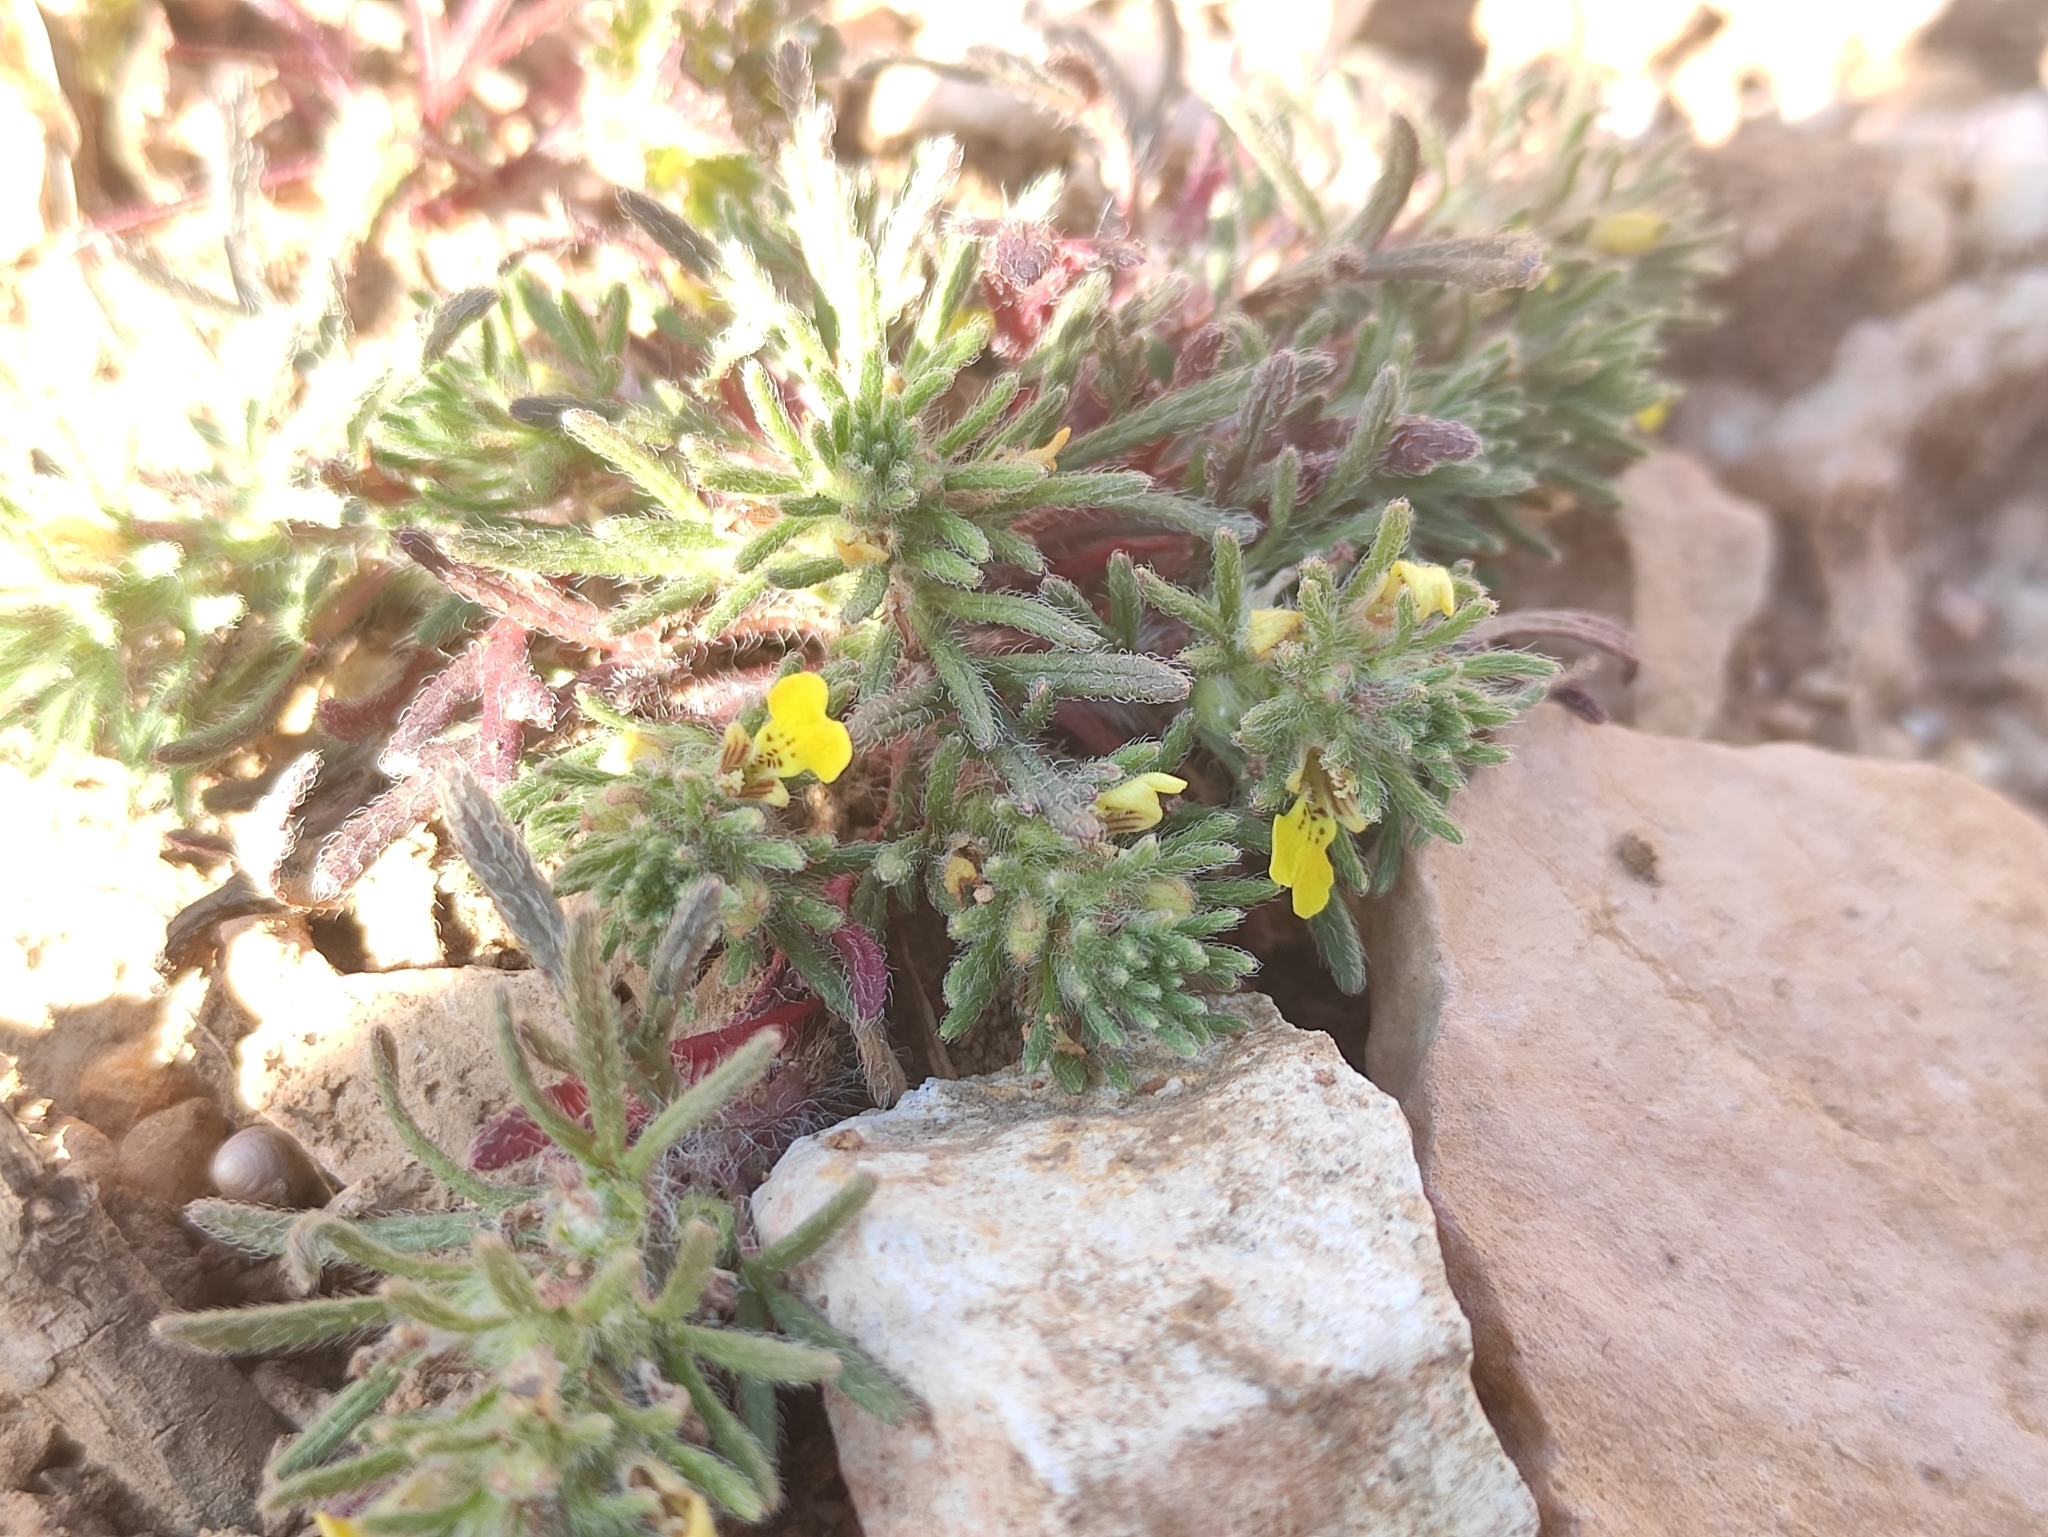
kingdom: Plantae
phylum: Tracheophyta
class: Magnoliopsida
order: Lamiales
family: Lamiaceae
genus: Ajuga
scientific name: Ajuga chamaepitys
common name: Ground-pine
